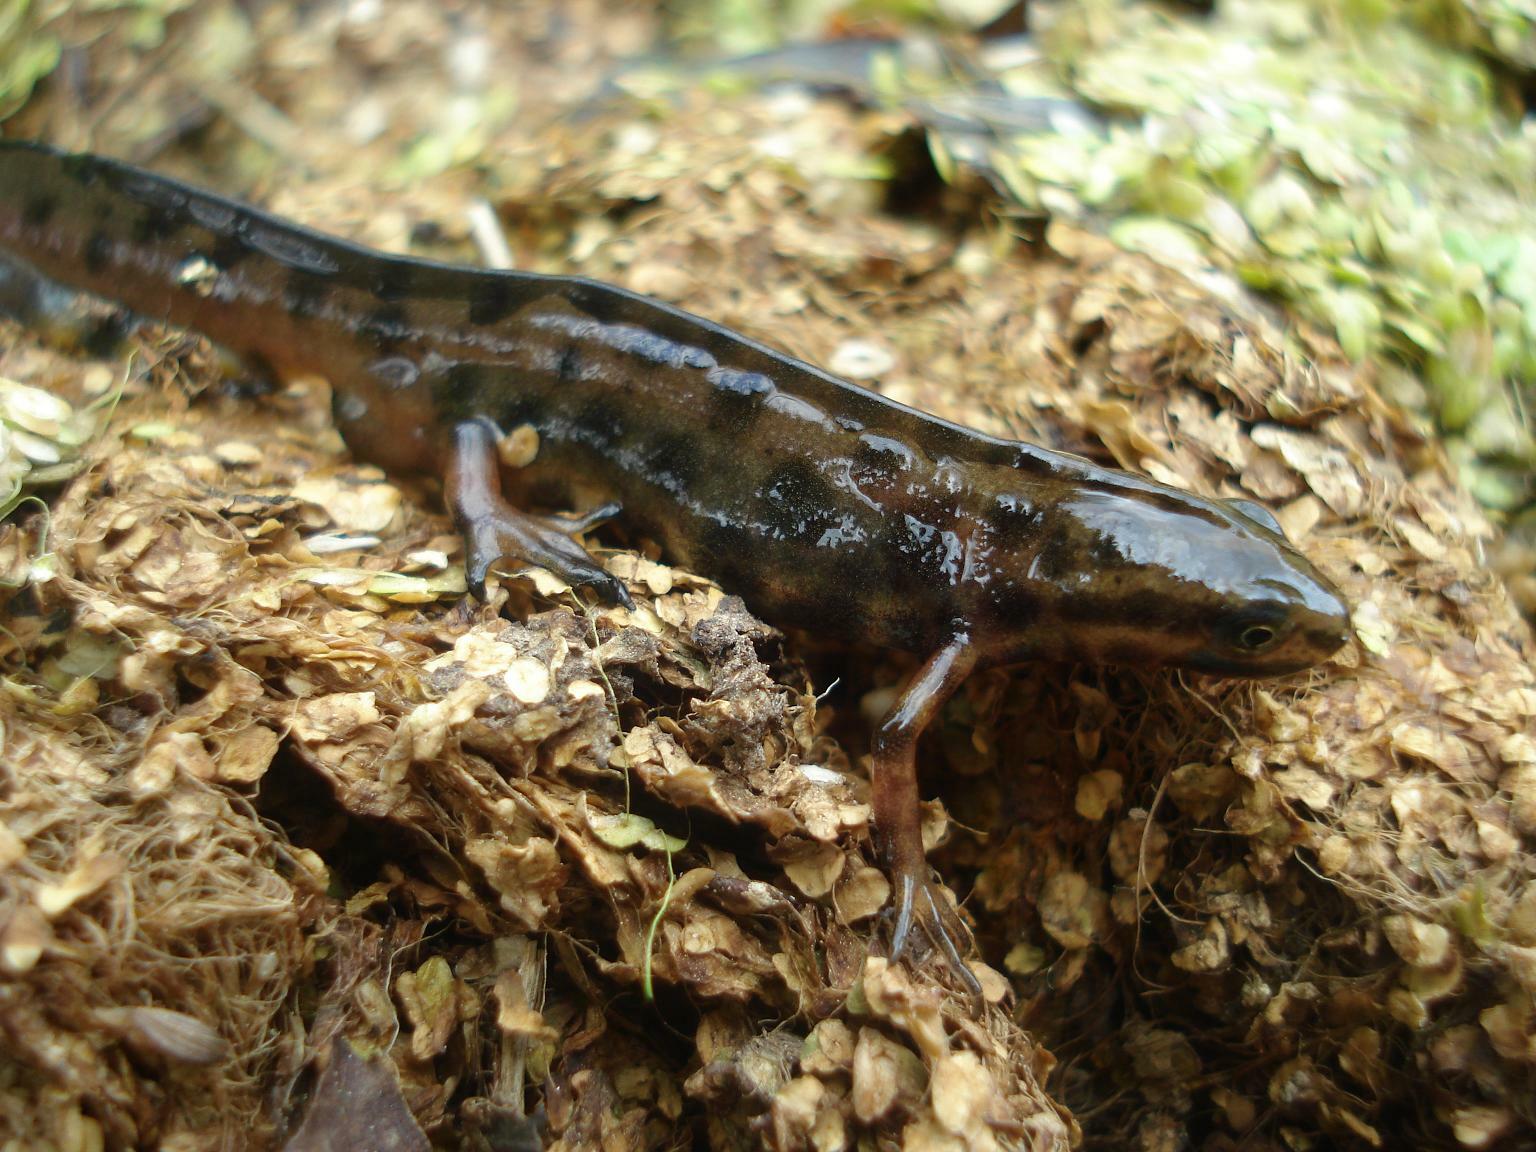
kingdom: Animalia
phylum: Chordata
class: Amphibia
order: Caudata
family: Salamandridae
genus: Lissotriton
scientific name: Lissotriton vulgaris
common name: Smooth newt
